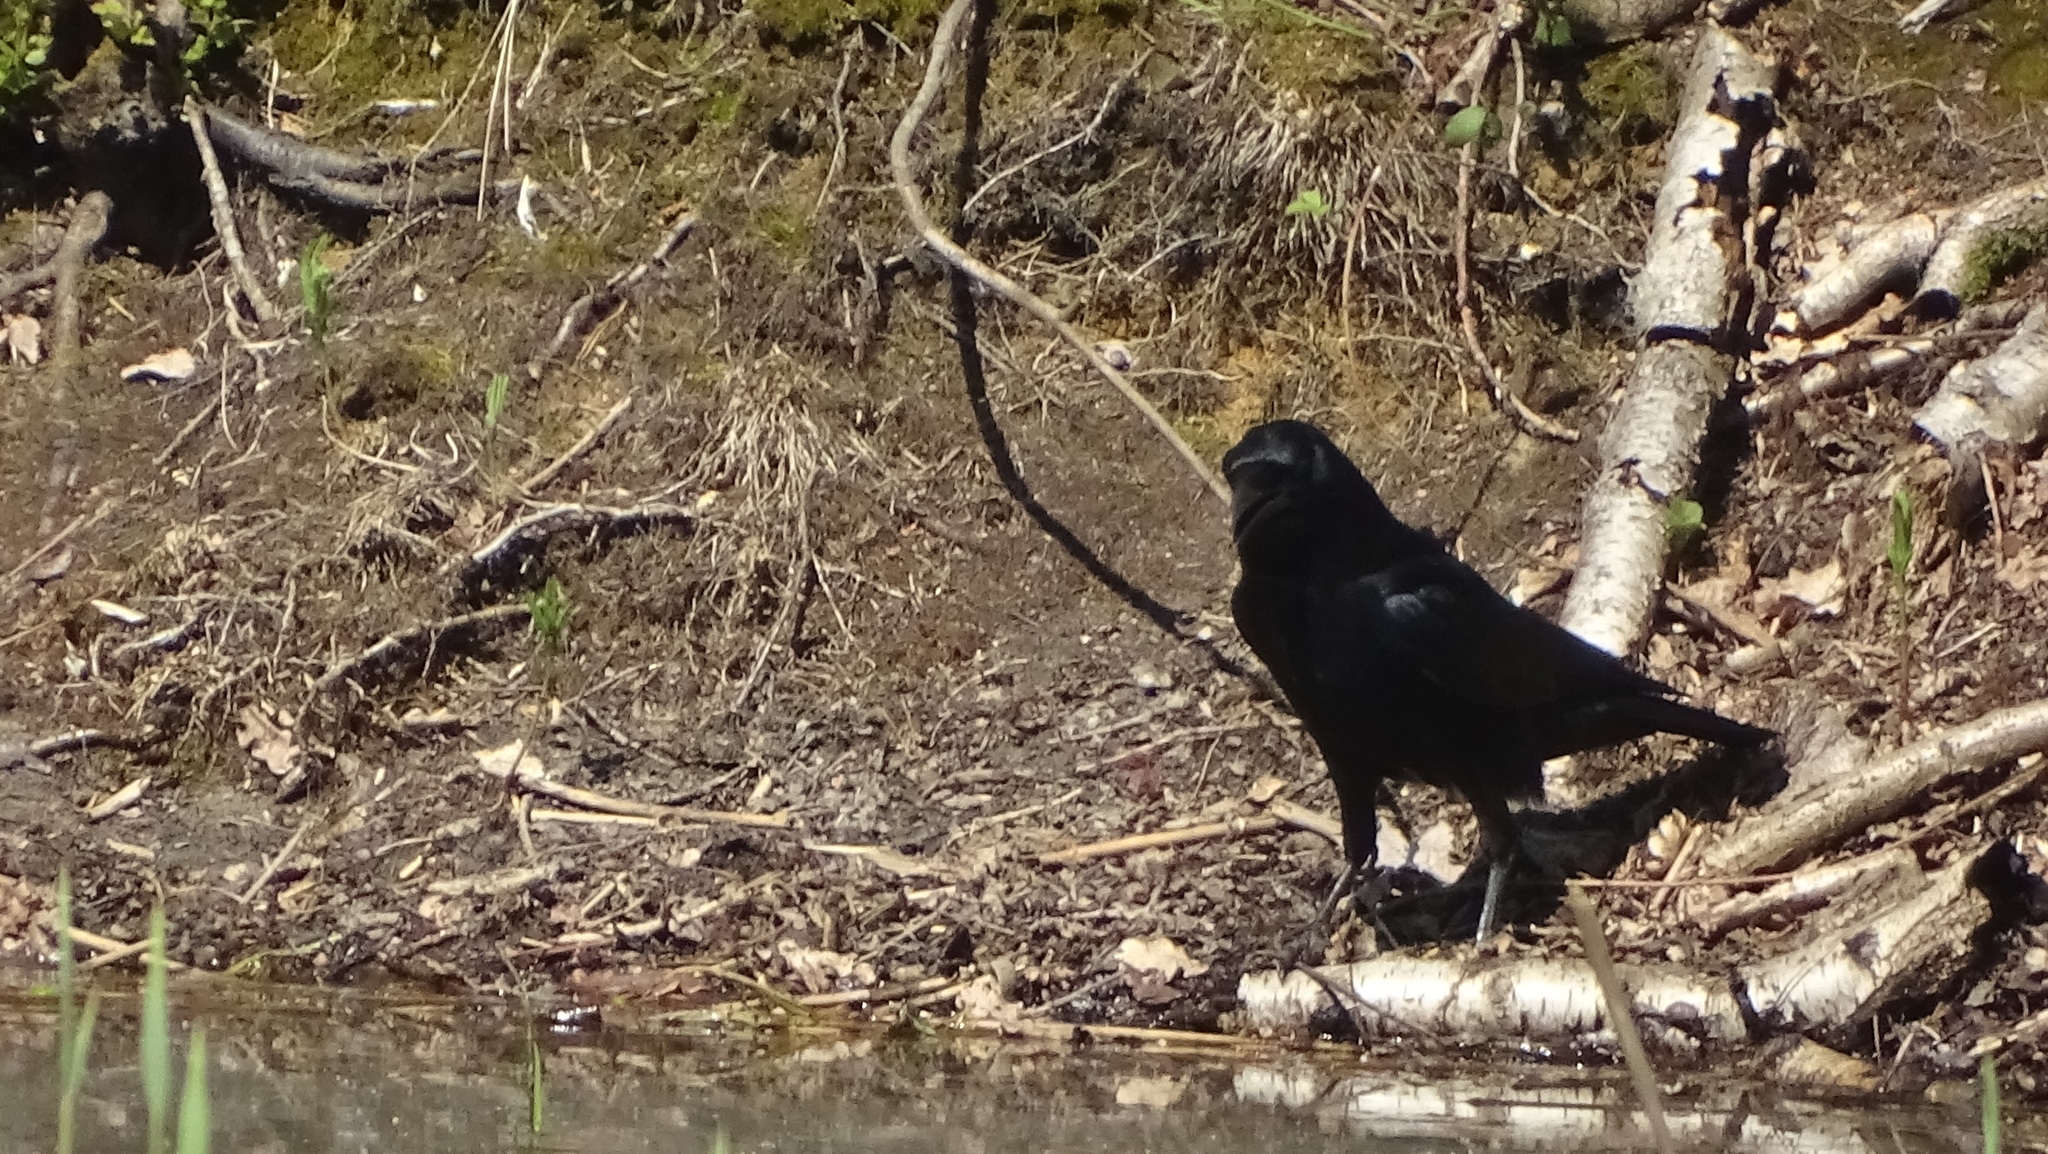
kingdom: Animalia
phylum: Chordata
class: Aves
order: Passeriformes
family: Corvidae
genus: Corvus
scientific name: Corvus corone
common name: Carrion crow
